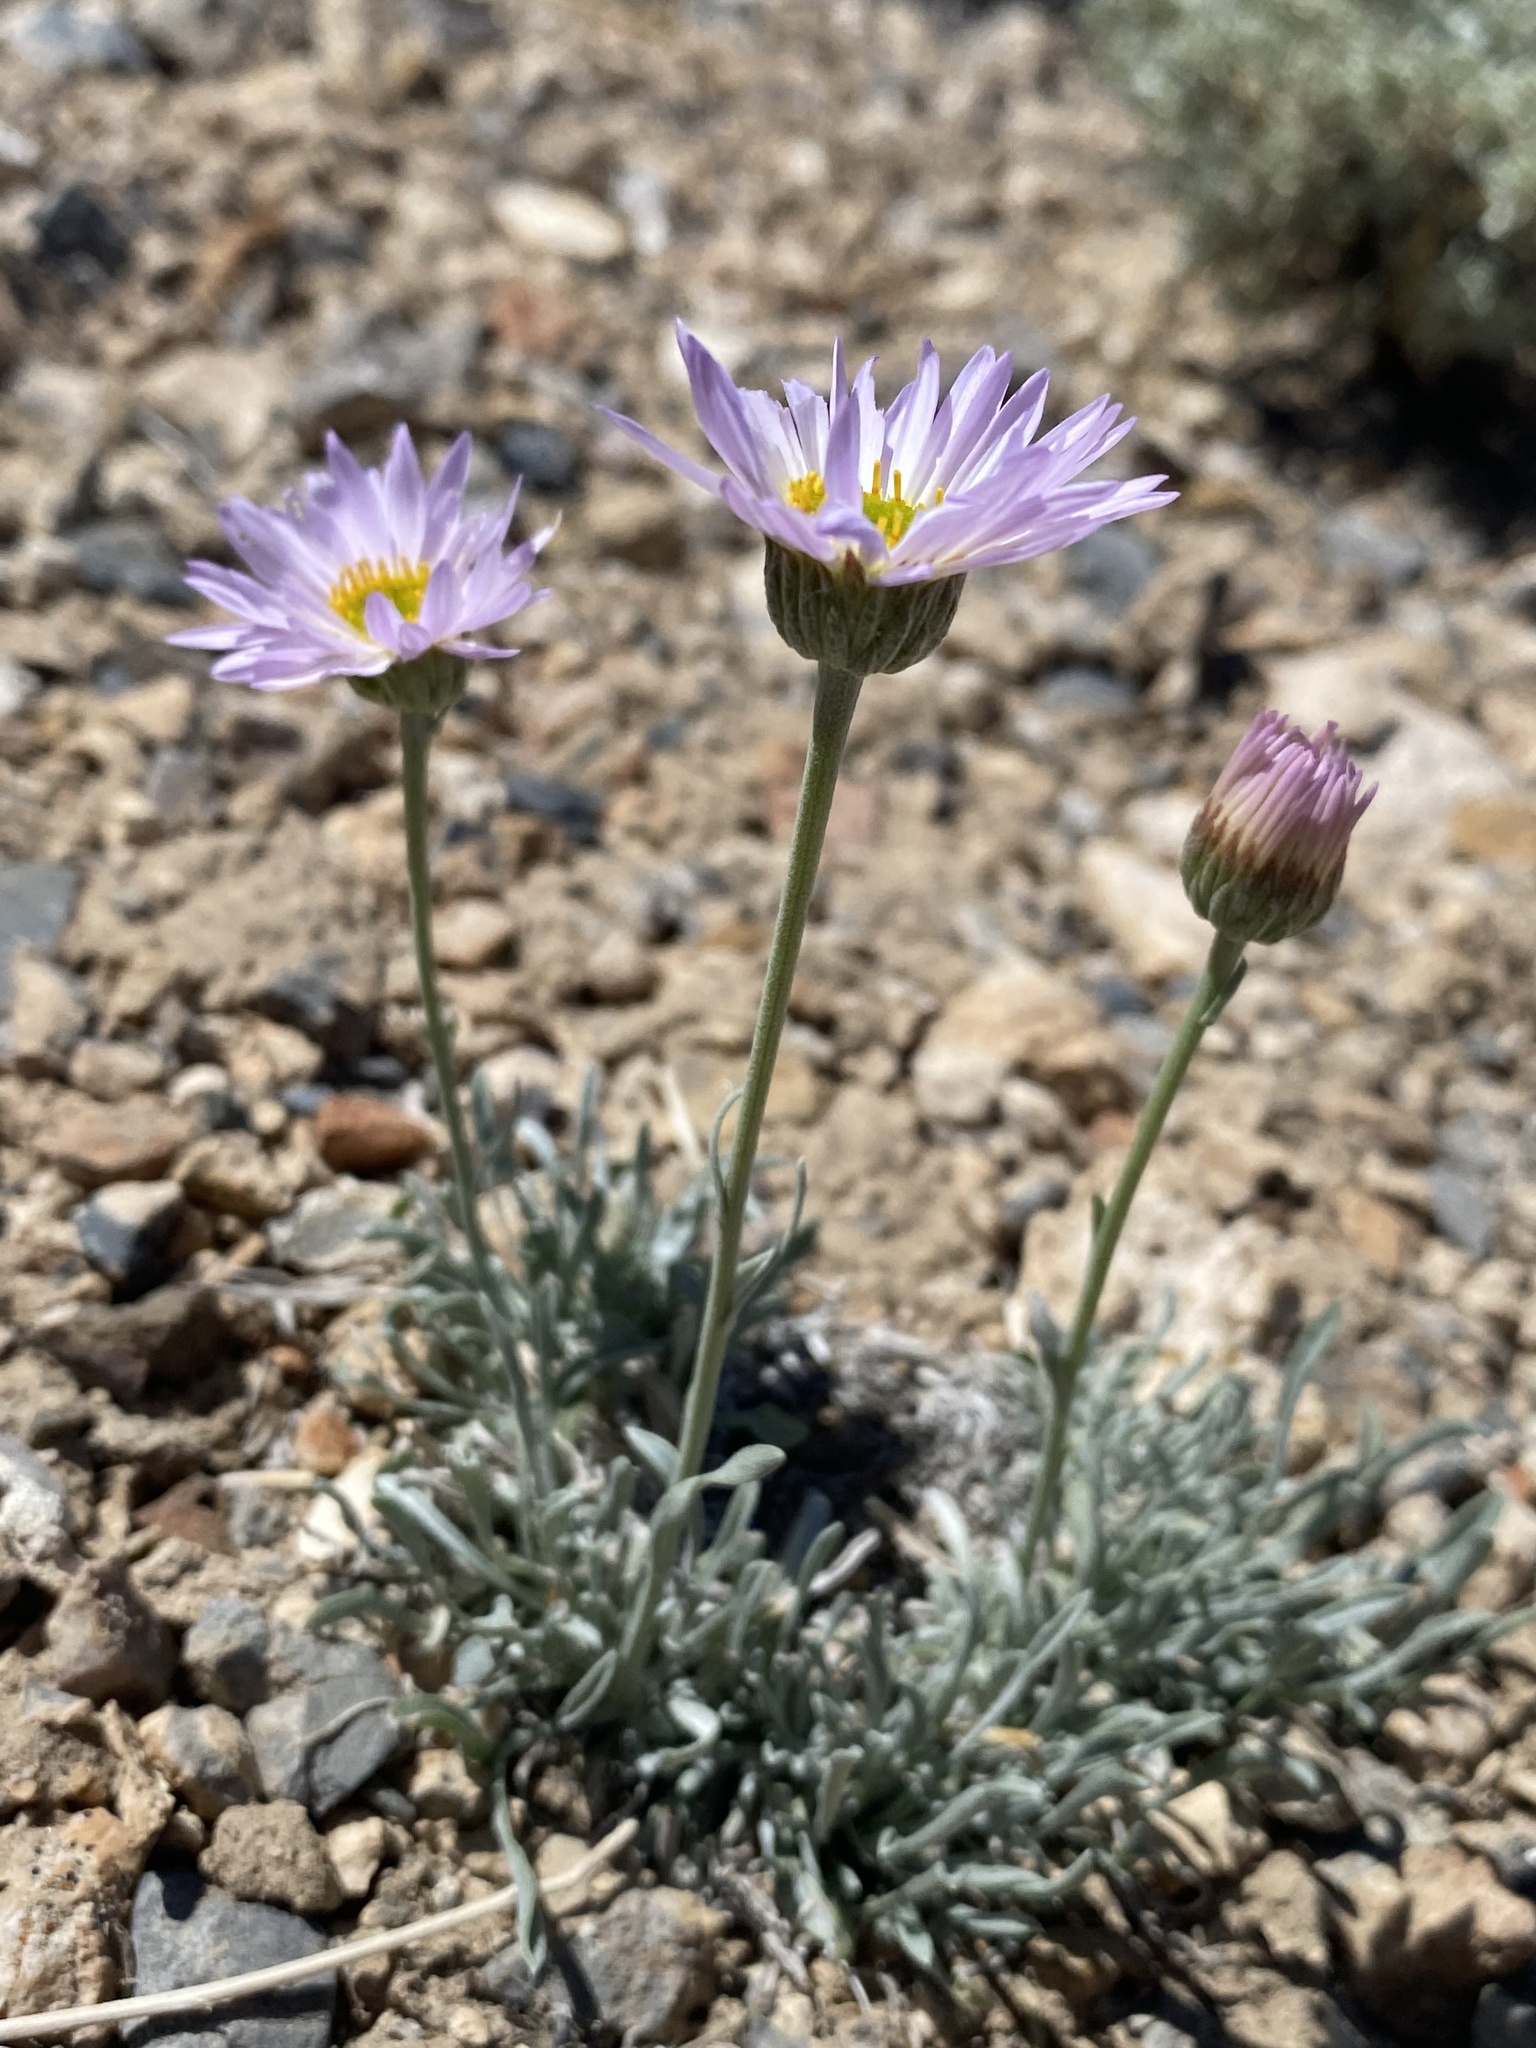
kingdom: Plantae
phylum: Tracheophyta
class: Magnoliopsida
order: Asterales
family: Asteraceae
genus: Erigeron
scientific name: Erigeron argentatus
